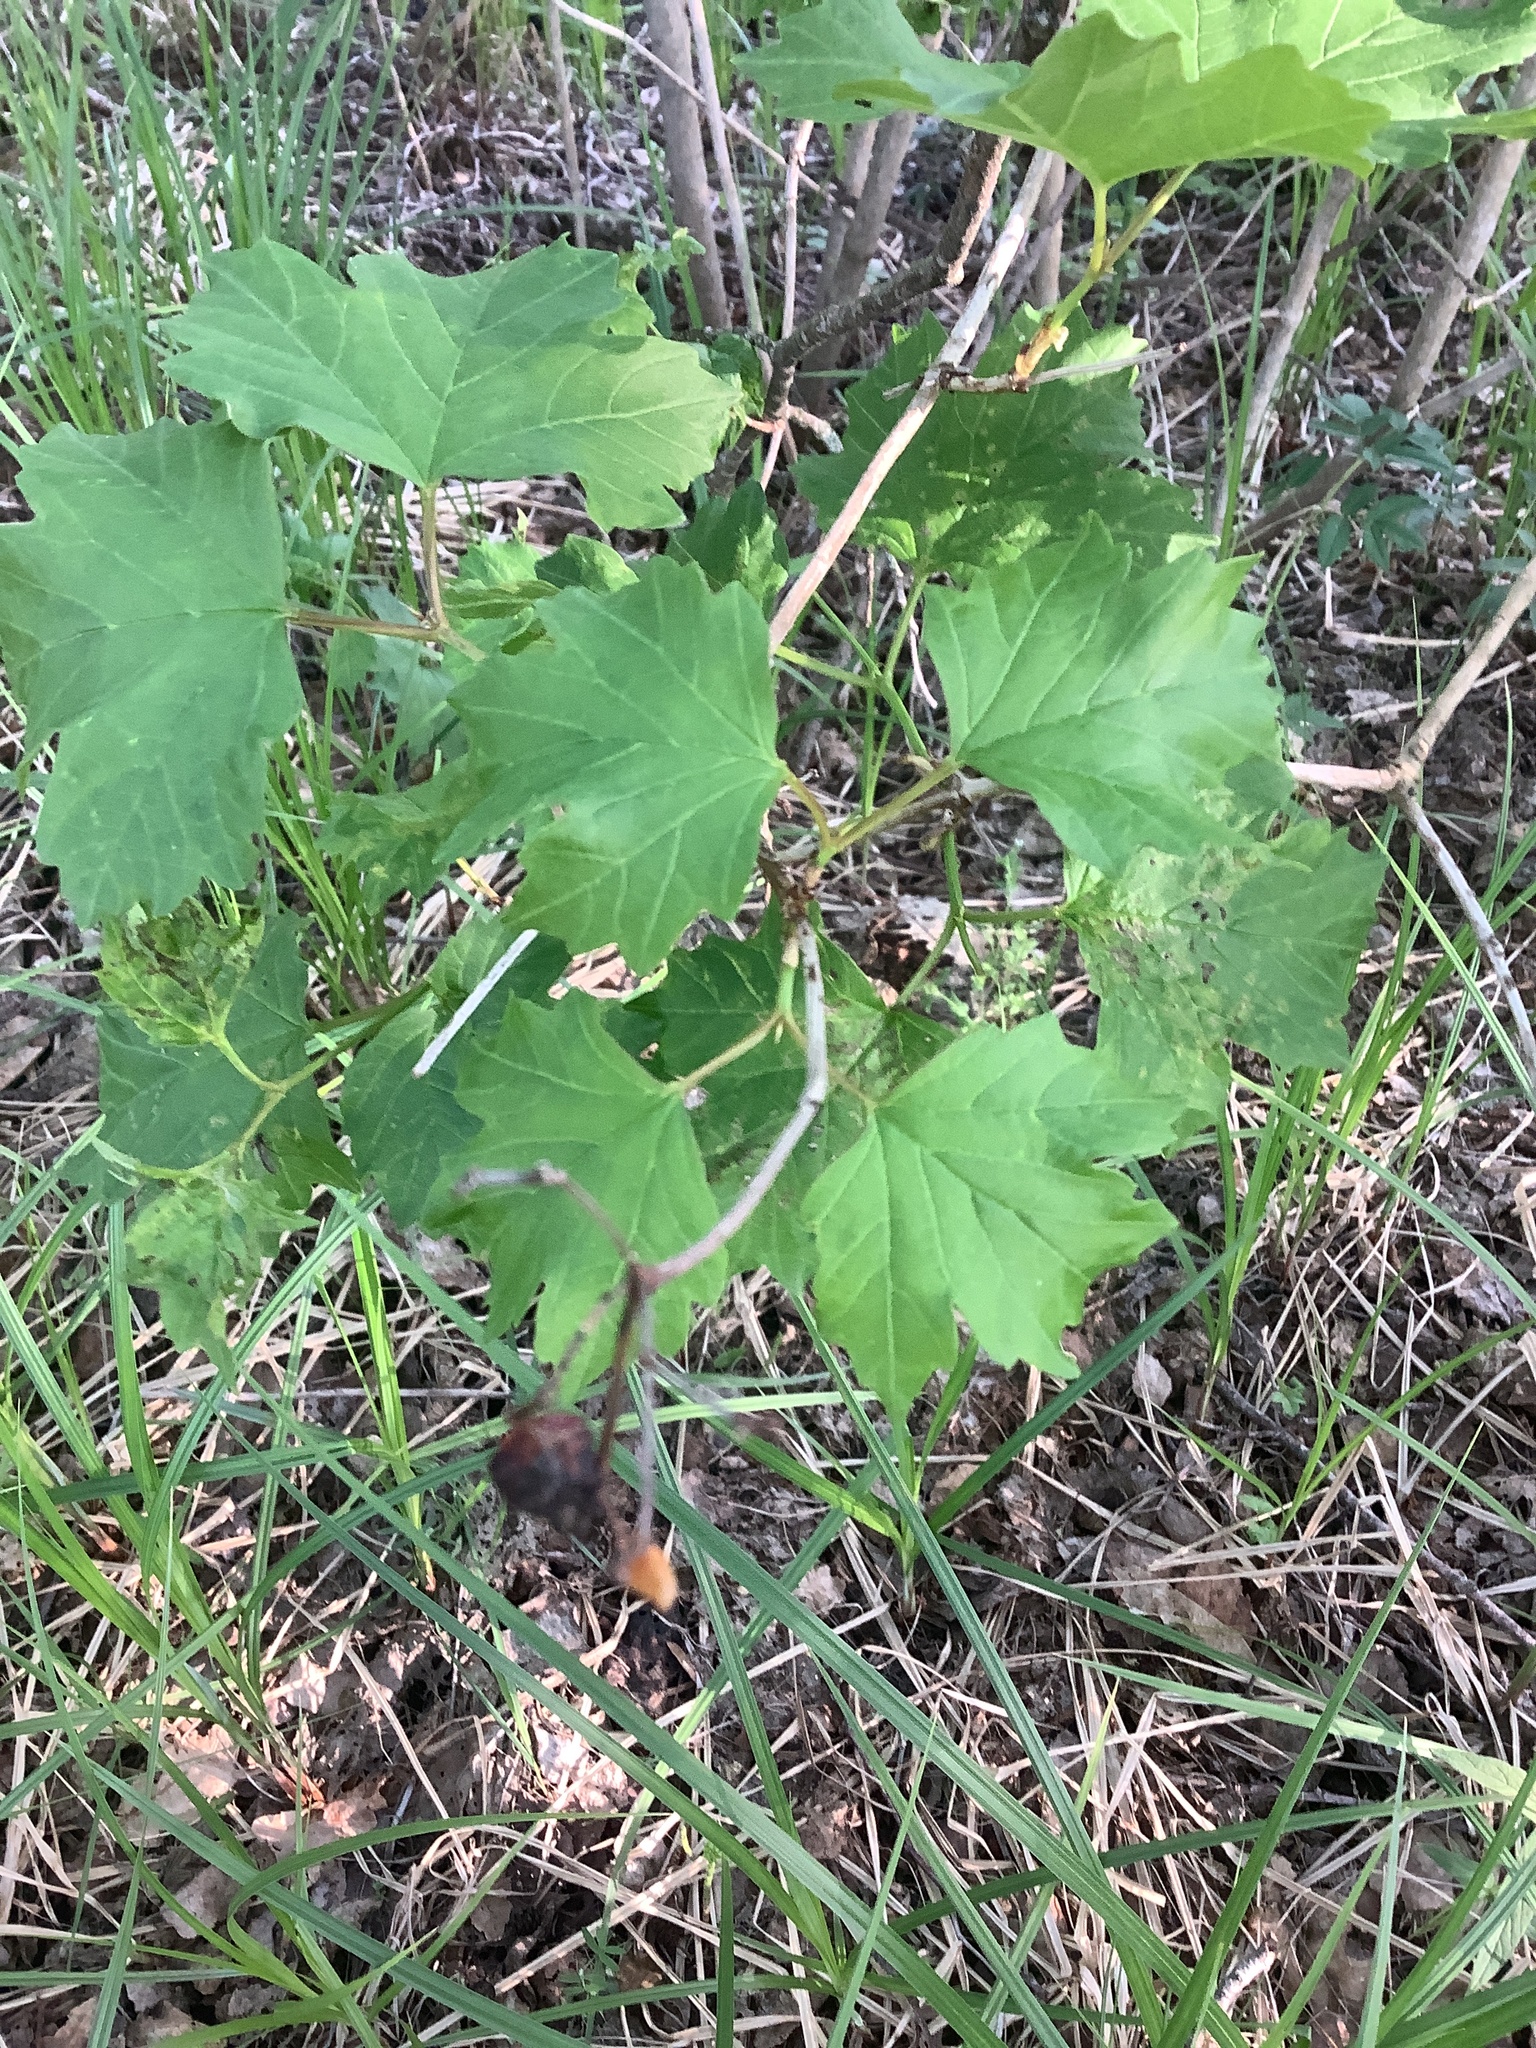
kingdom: Plantae
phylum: Tracheophyta
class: Magnoliopsida
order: Dipsacales
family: Viburnaceae
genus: Viburnum
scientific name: Viburnum opulus
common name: Guelder-rose
